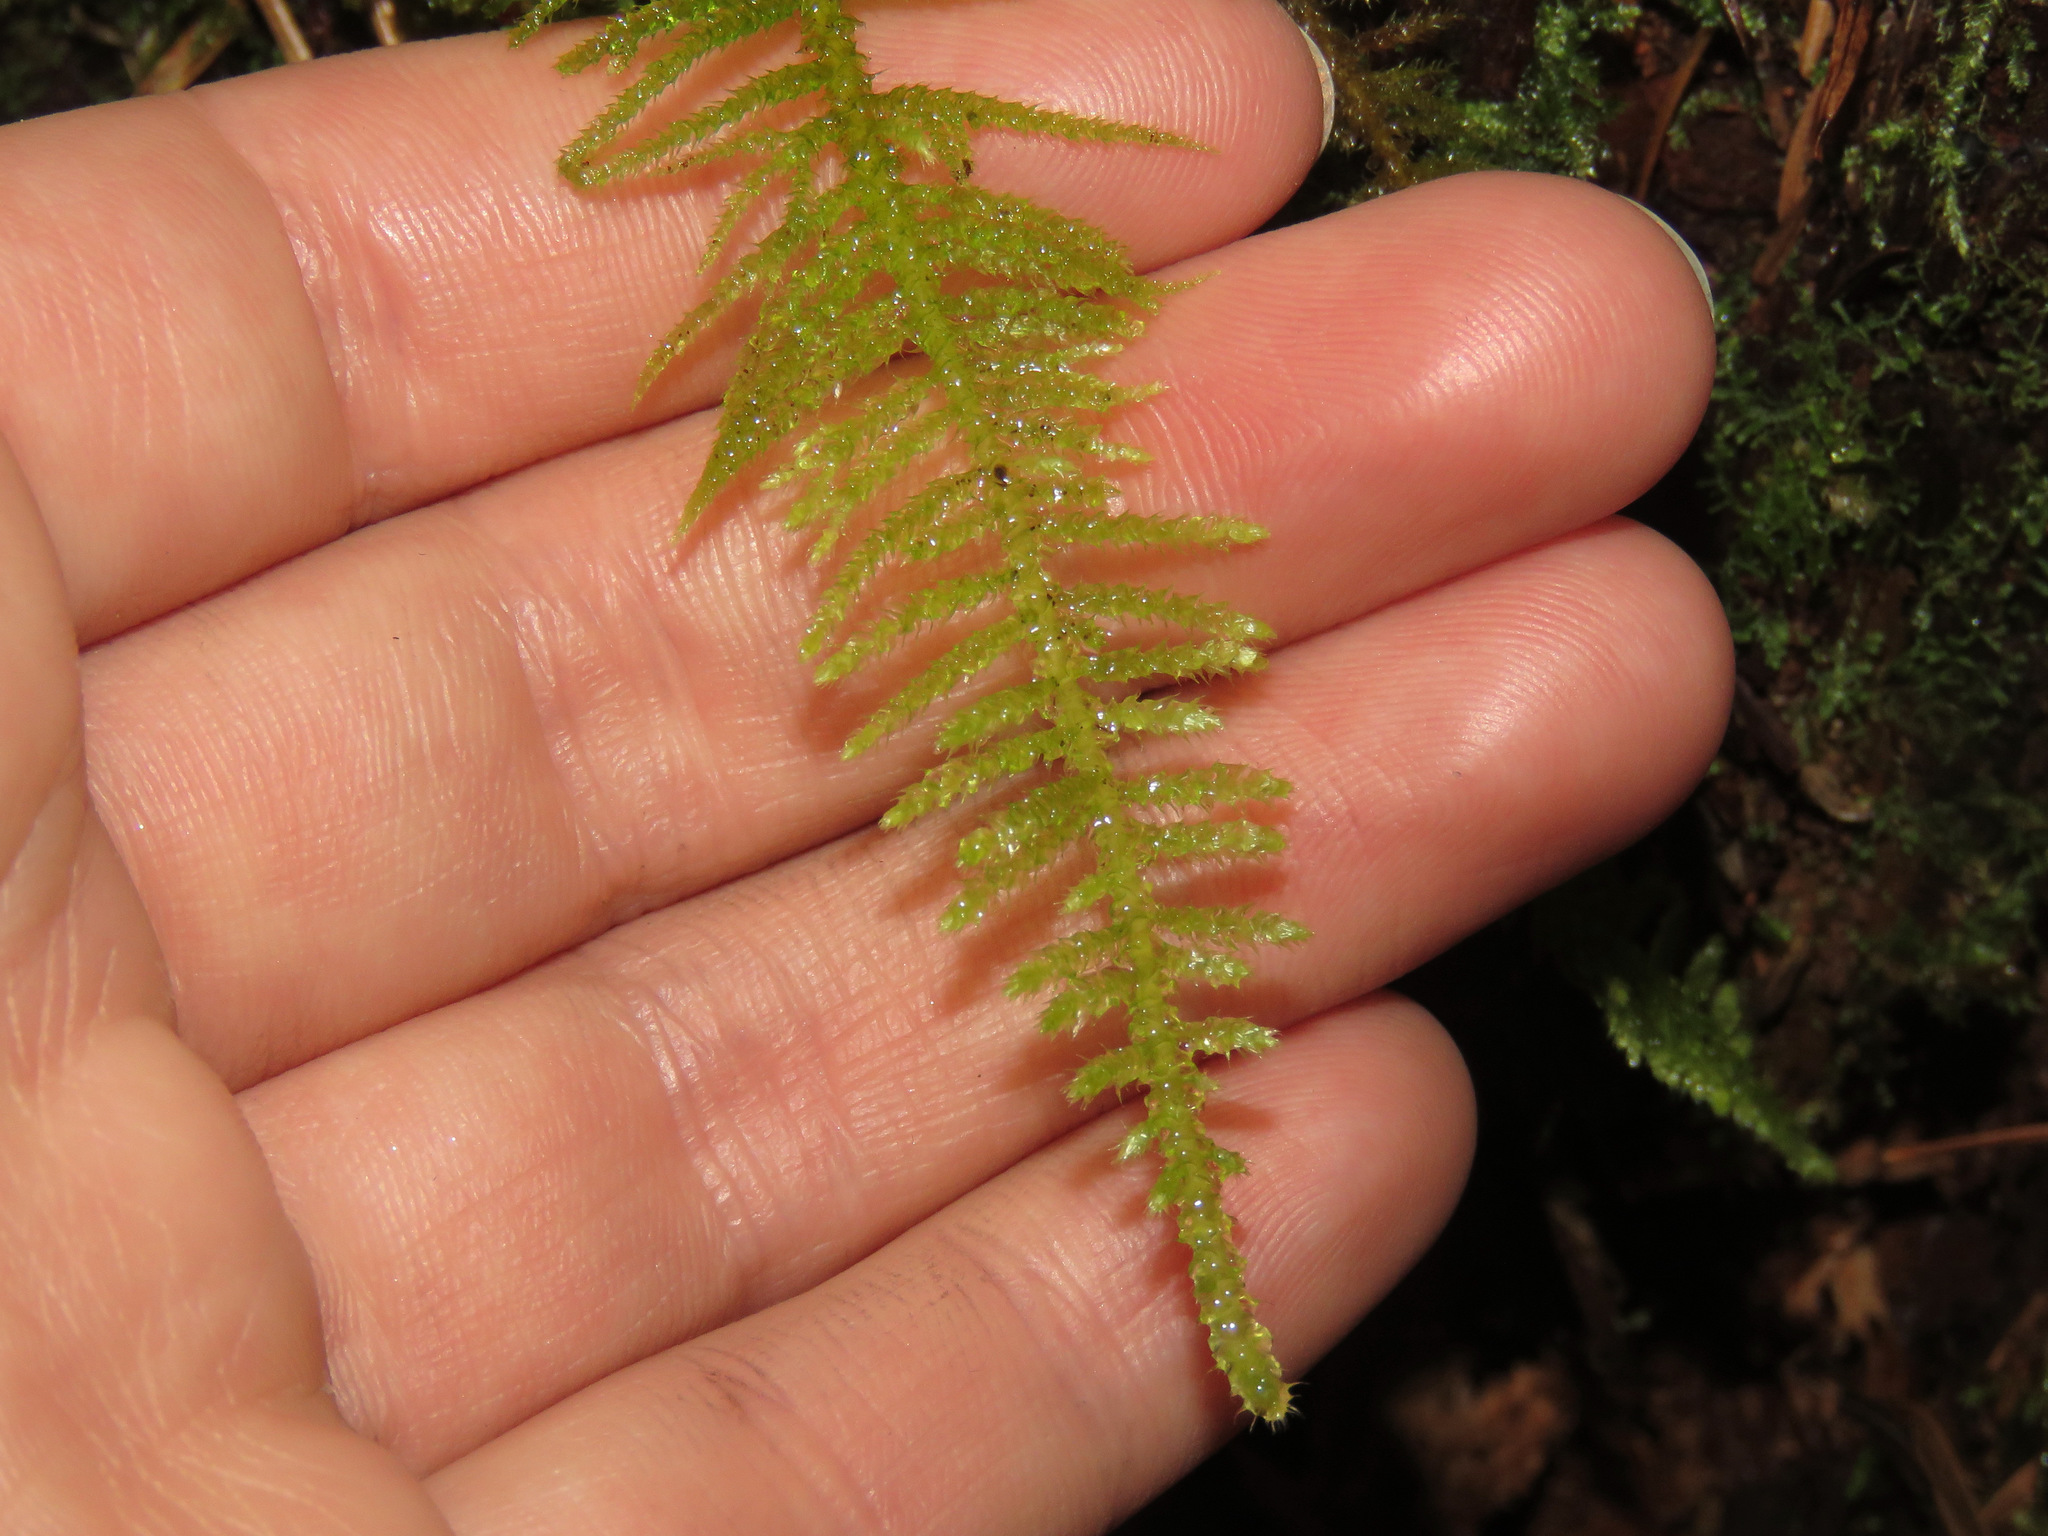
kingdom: Plantae
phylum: Bryophyta
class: Bryopsida
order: Hypnales
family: Brachytheciaceae
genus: Kindbergia
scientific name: Kindbergia oregana
